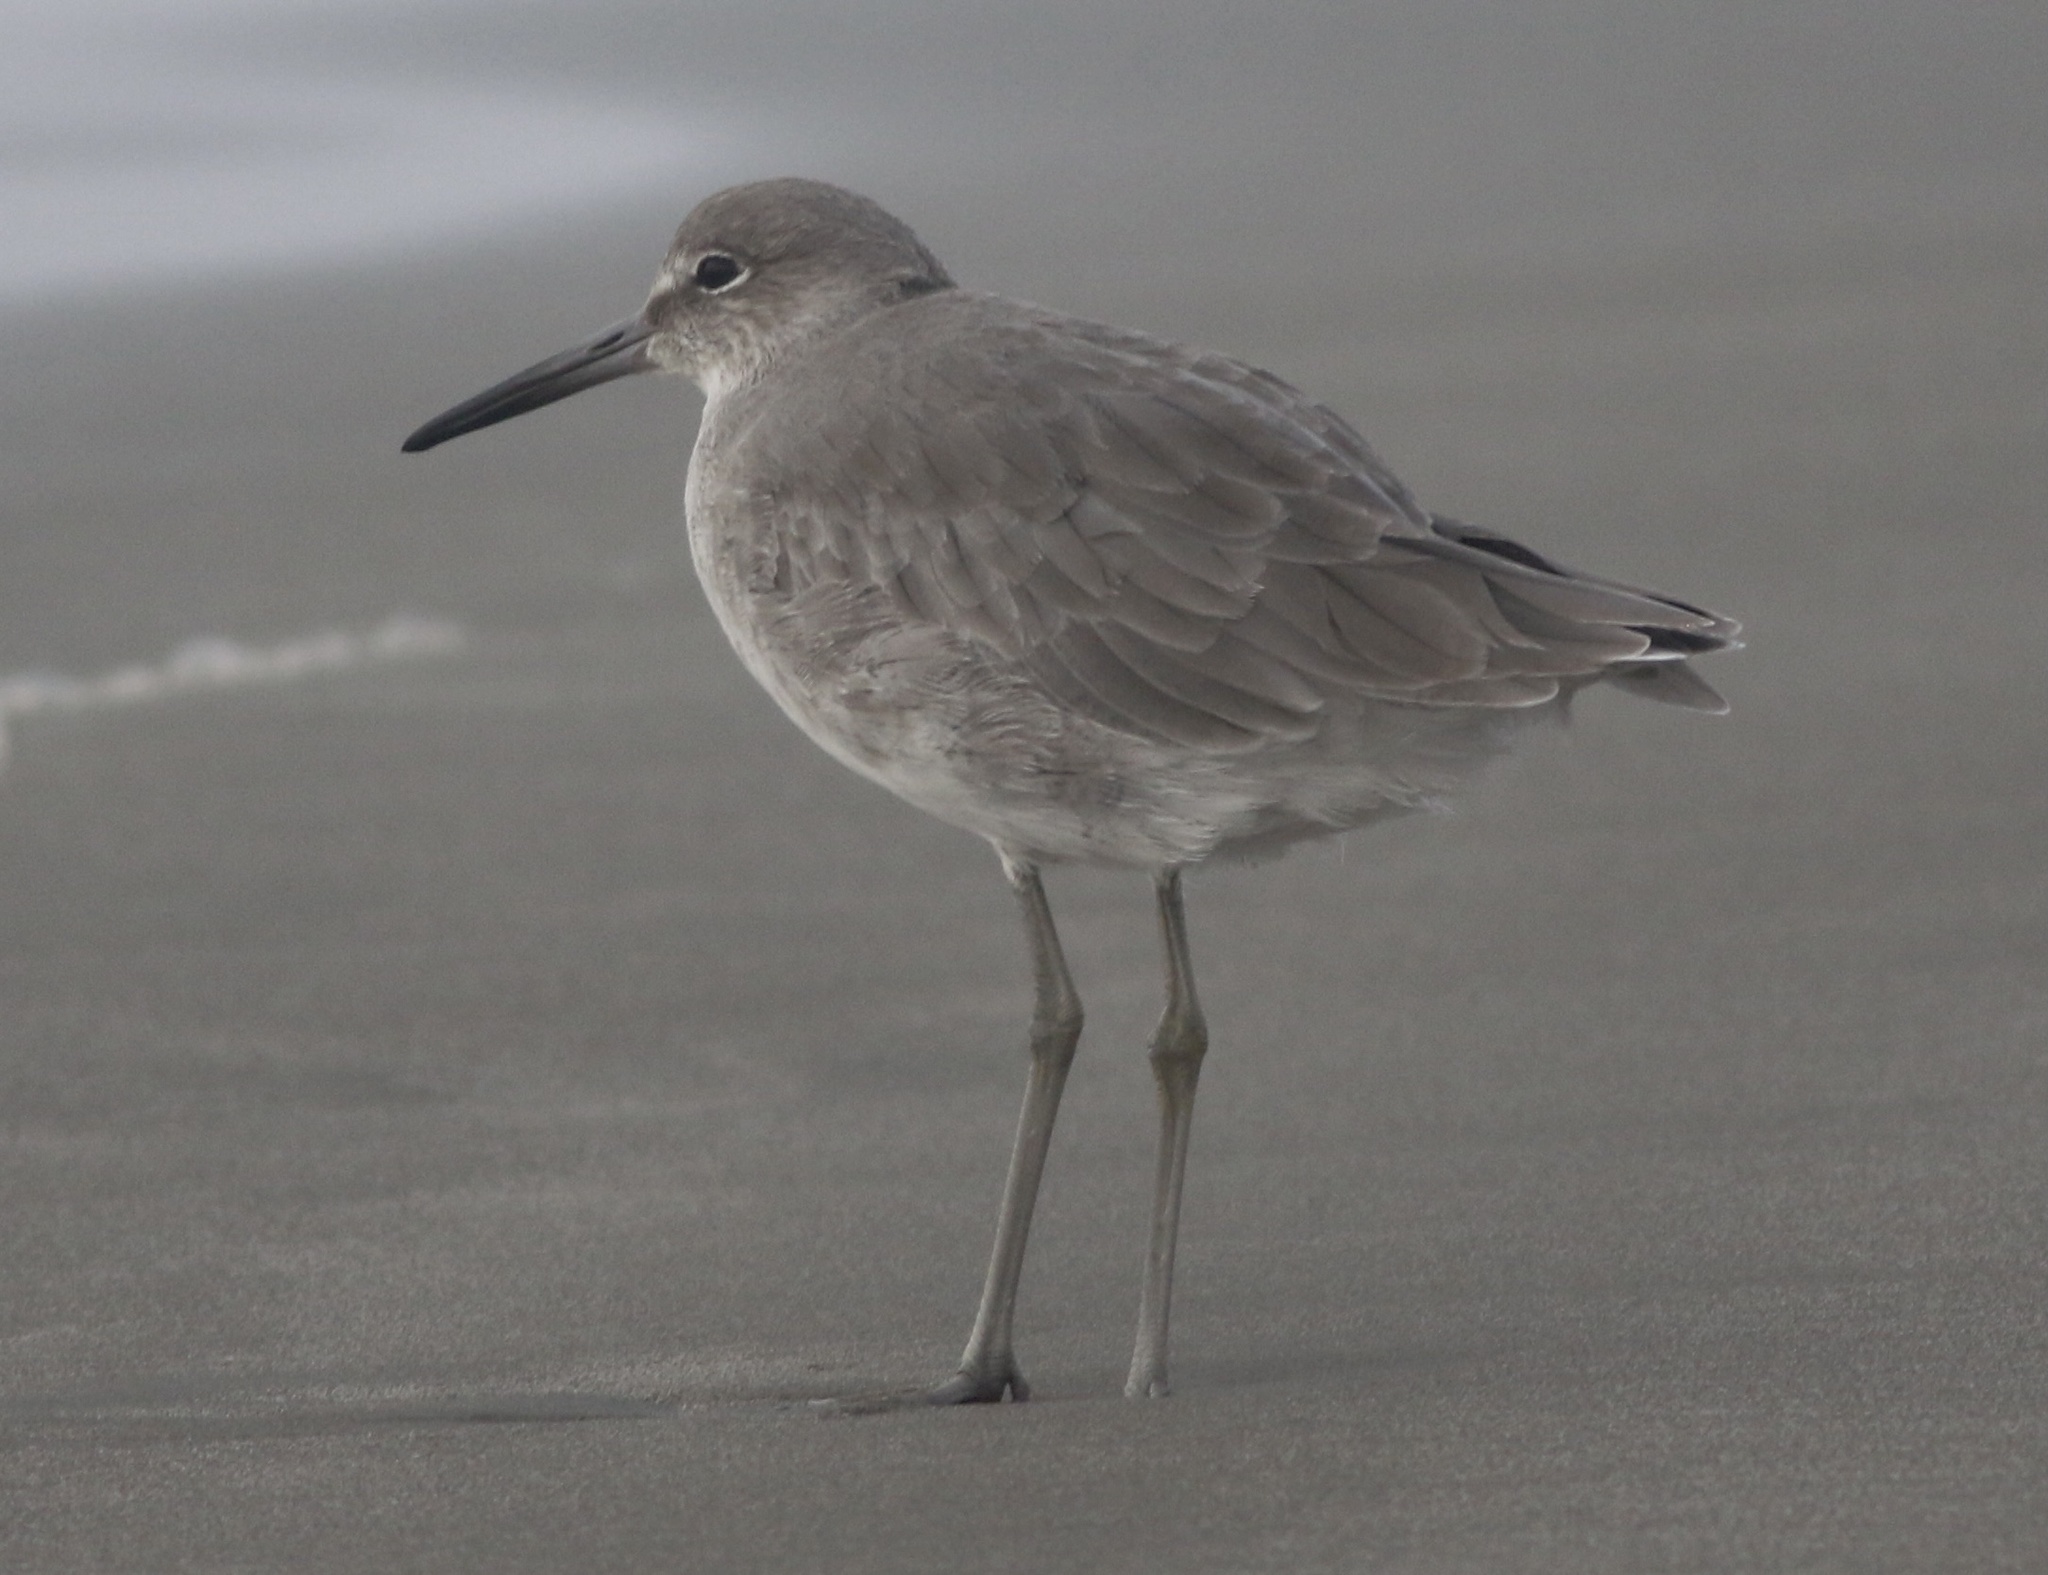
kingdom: Animalia
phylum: Chordata
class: Aves
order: Charadriiformes
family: Scolopacidae
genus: Tringa
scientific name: Tringa semipalmata
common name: Willet
